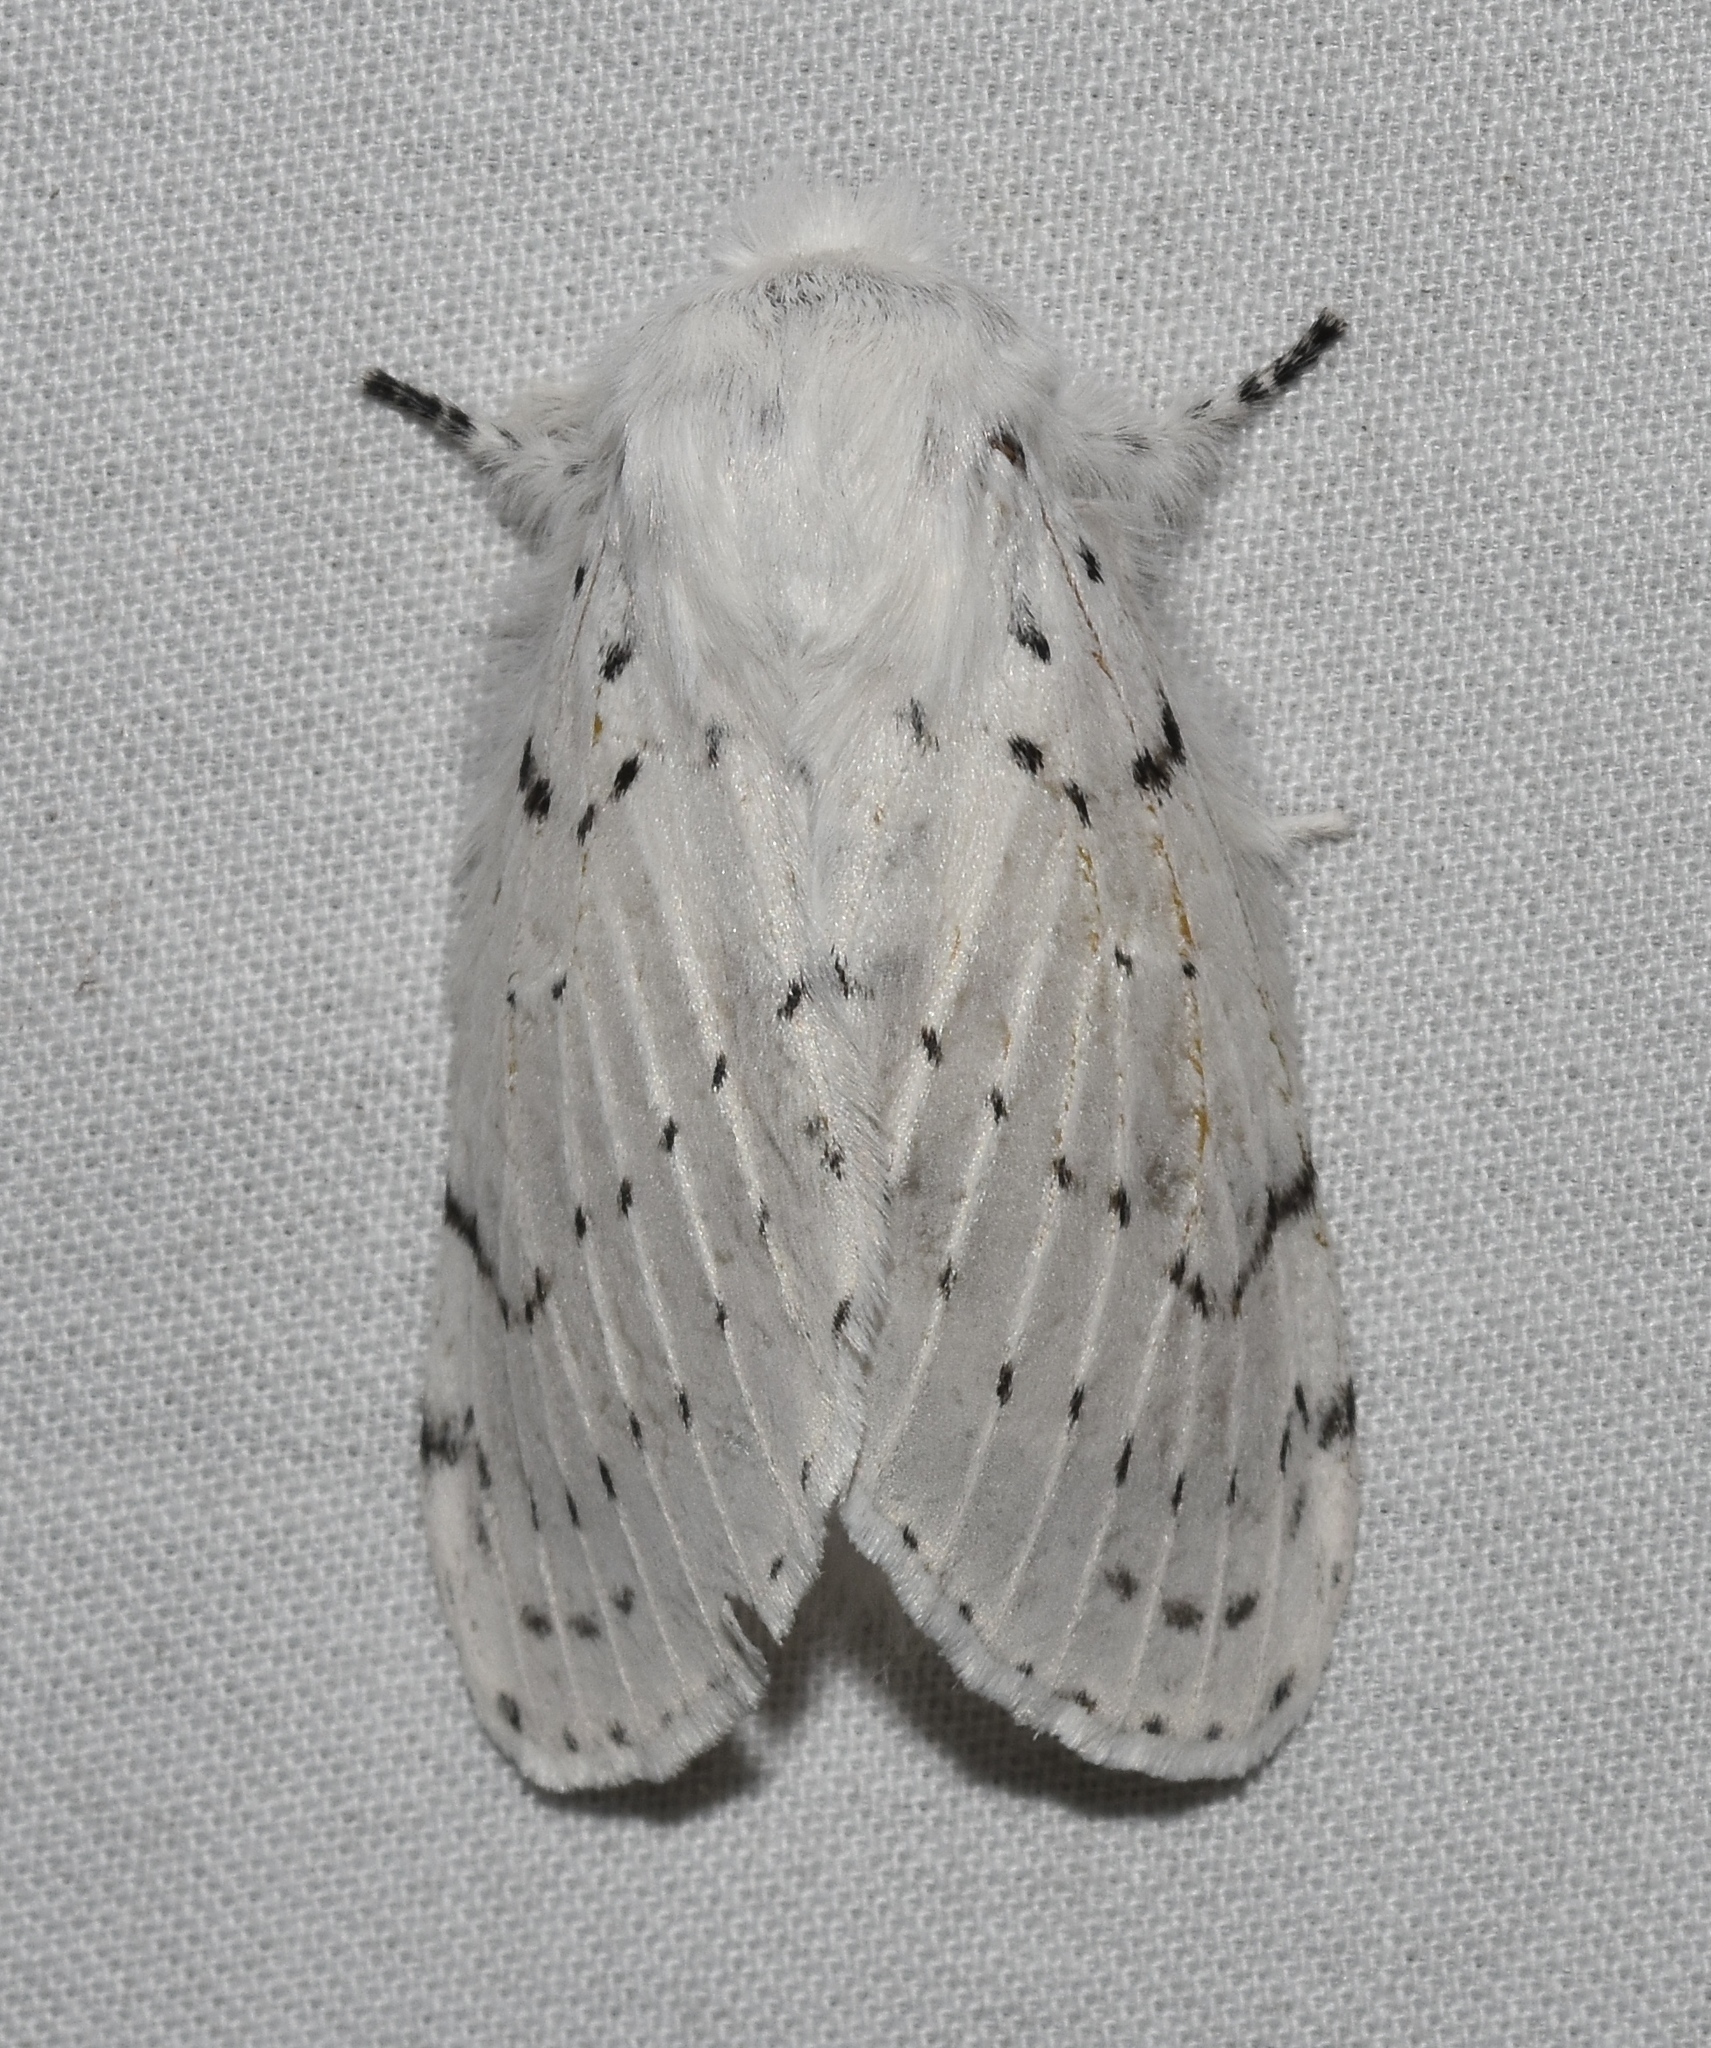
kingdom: Animalia
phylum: Arthropoda
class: Insecta
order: Lepidoptera
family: Lasiocampidae
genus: Artace
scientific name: Artace cribrarius
